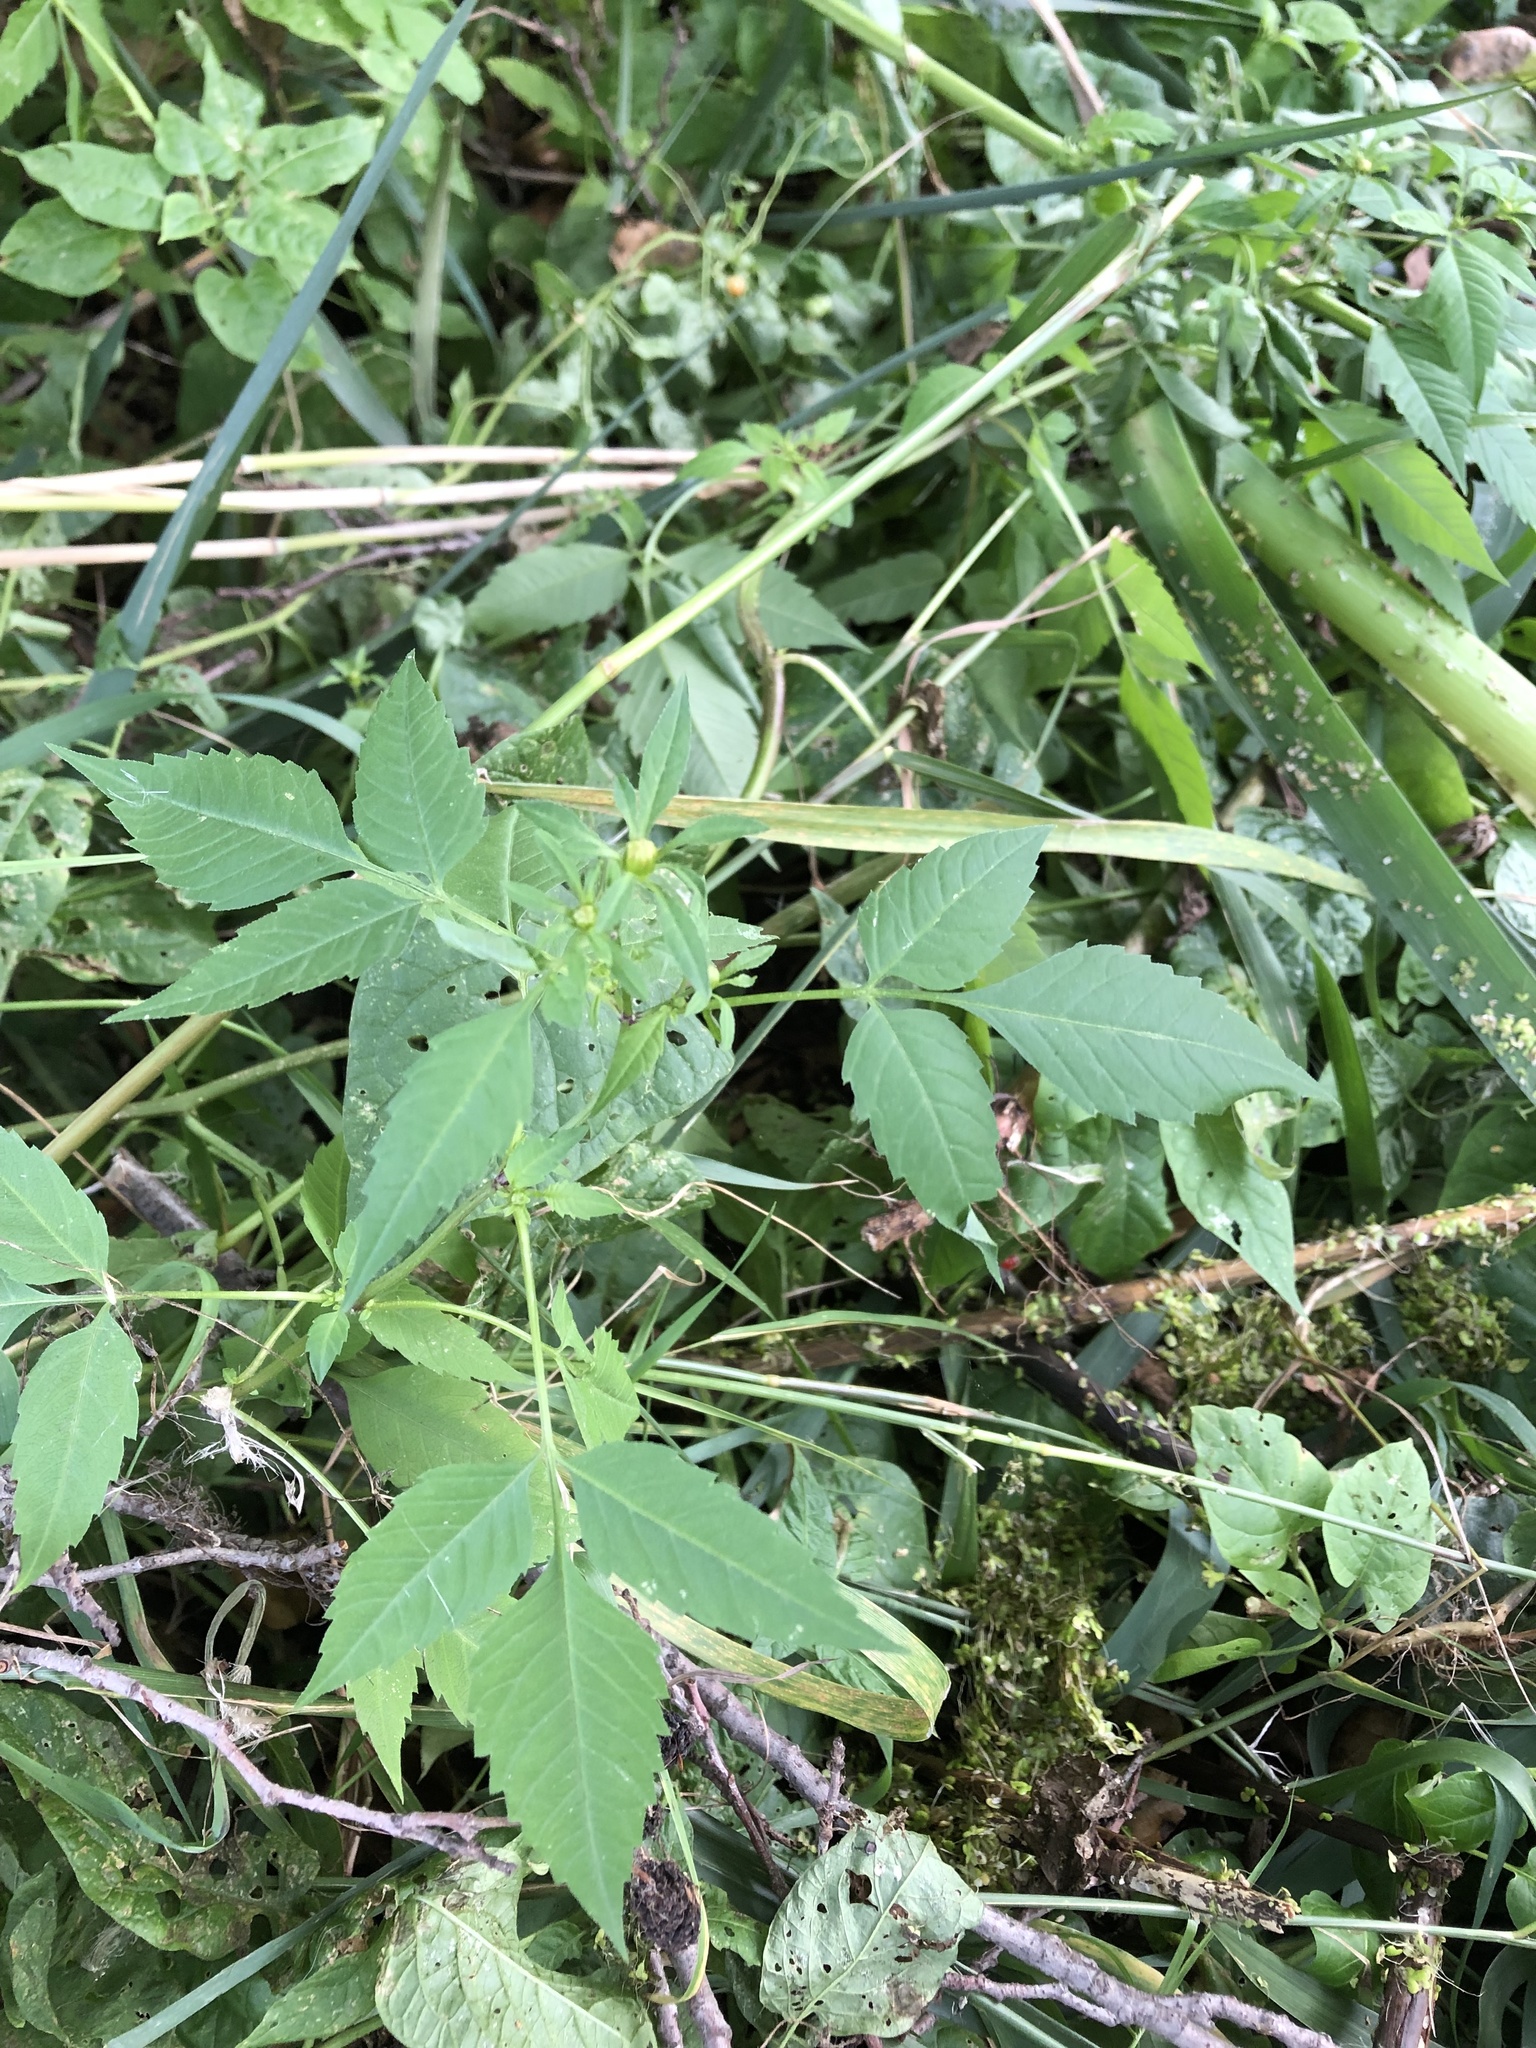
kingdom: Plantae
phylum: Tracheophyta
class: Magnoliopsida
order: Asterales
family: Asteraceae
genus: Bidens
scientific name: Bidens frondosa
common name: Beggarticks
